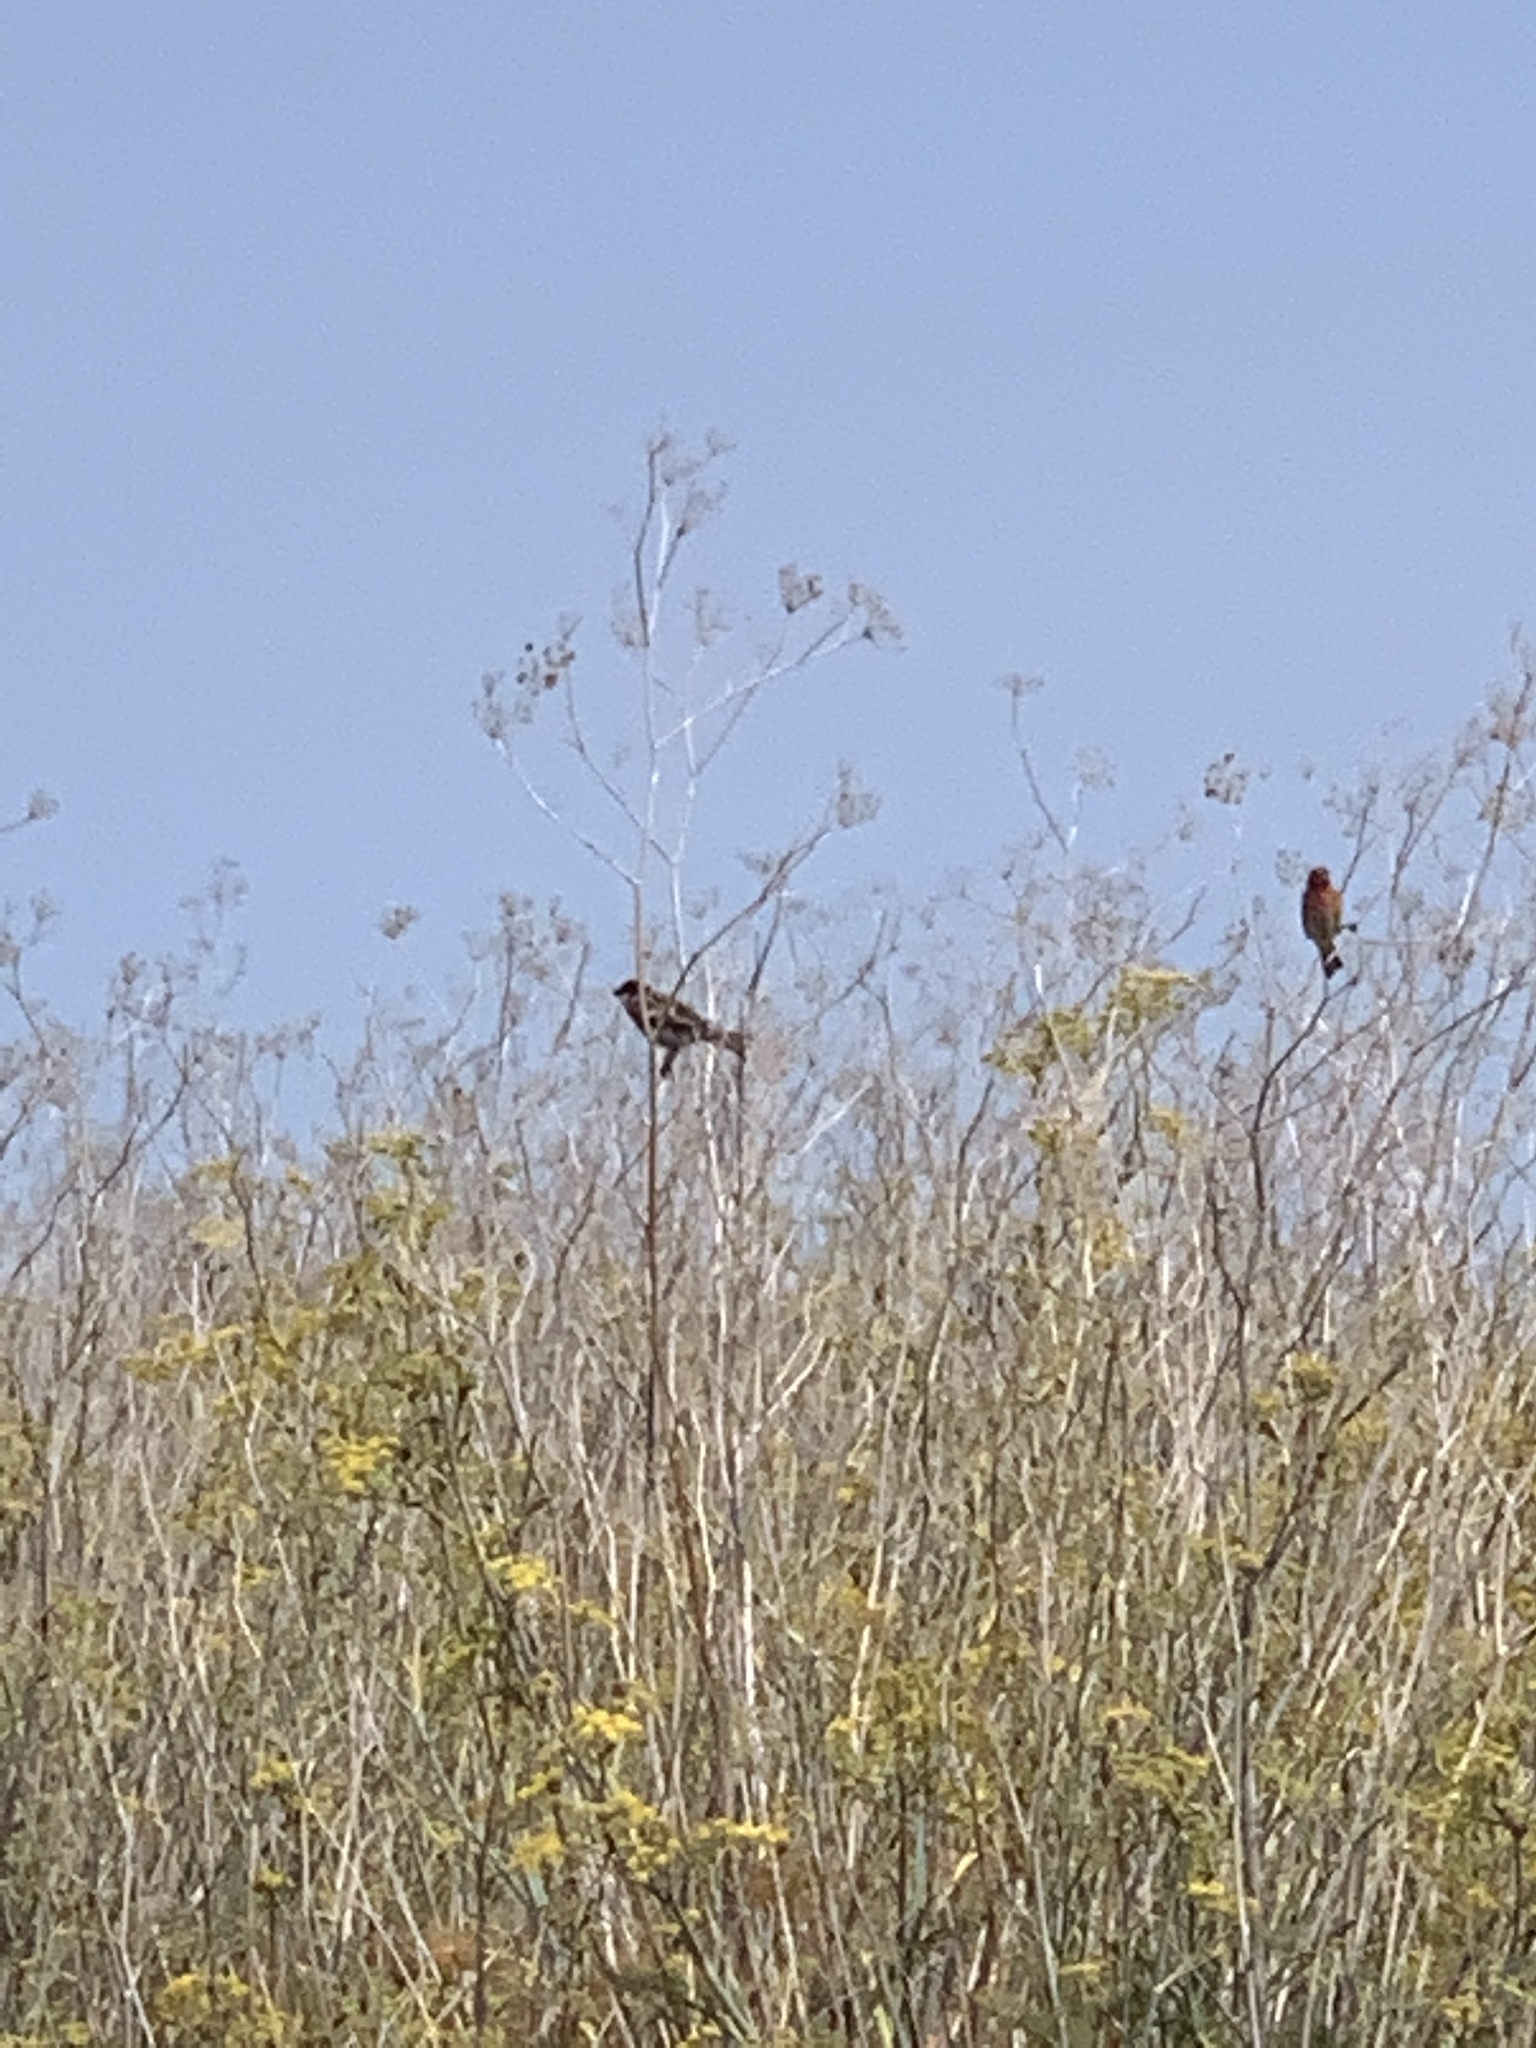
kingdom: Animalia
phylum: Chordata
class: Aves
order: Passeriformes
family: Fringillidae
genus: Haemorhous
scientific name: Haemorhous mexicanus
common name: House finch
